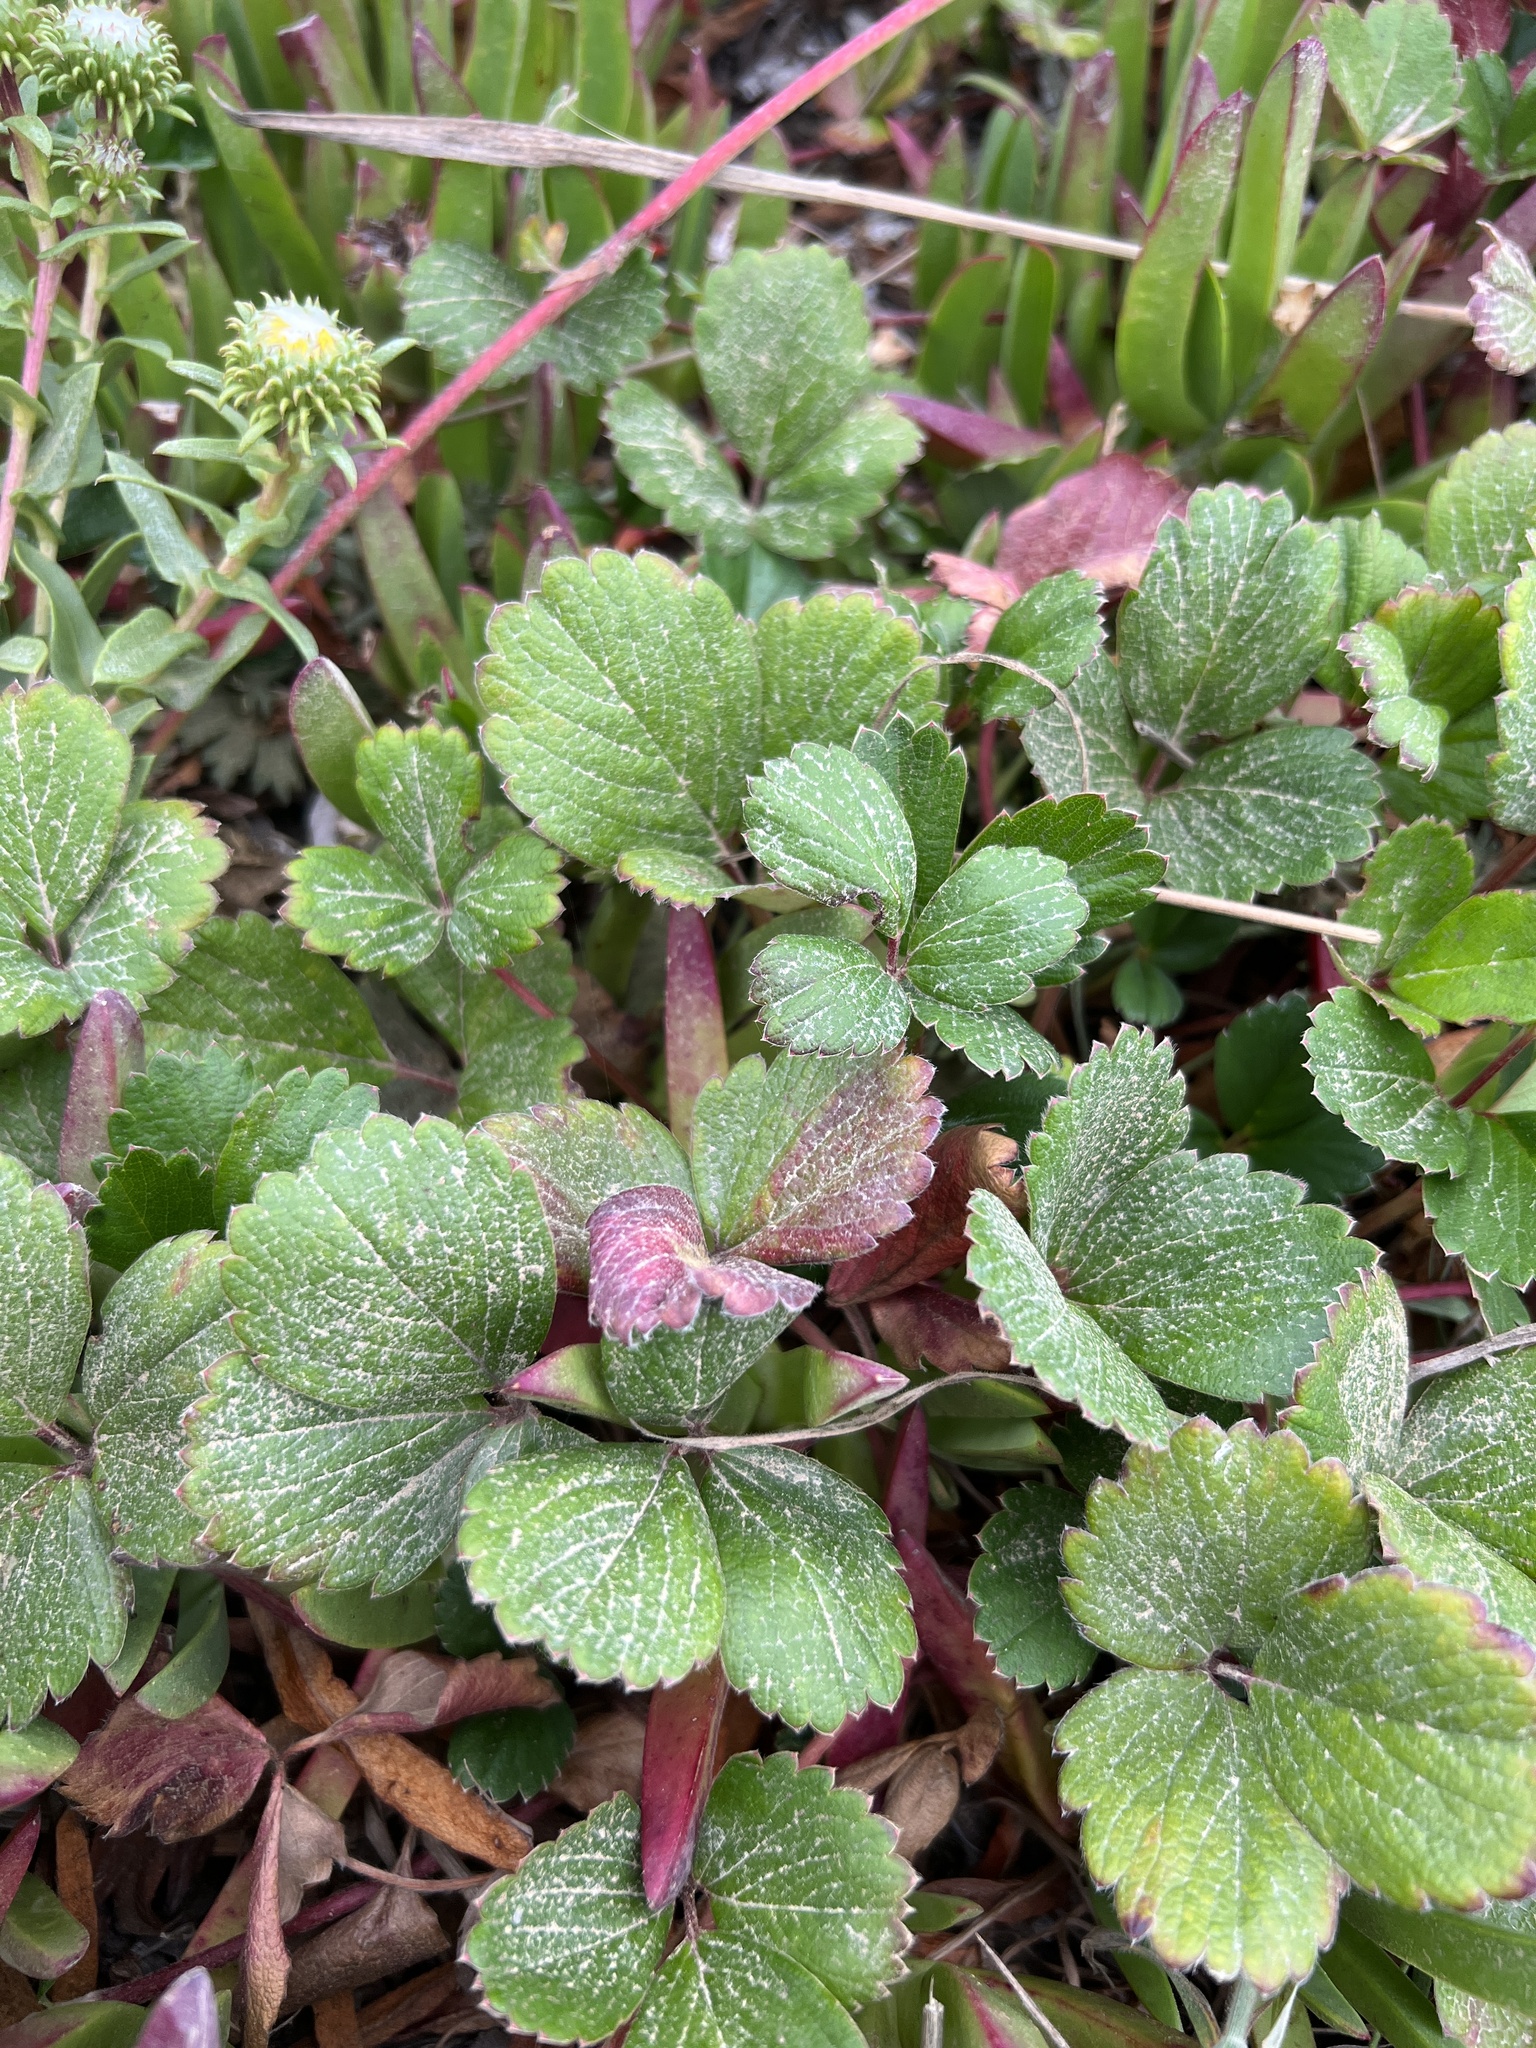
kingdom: Plantae
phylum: Tracheophyta
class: Magnoliopsida
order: Rosales
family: Rosaceae
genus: Fragaria
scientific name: Fragaria chiloensis
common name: Beach strawberry
